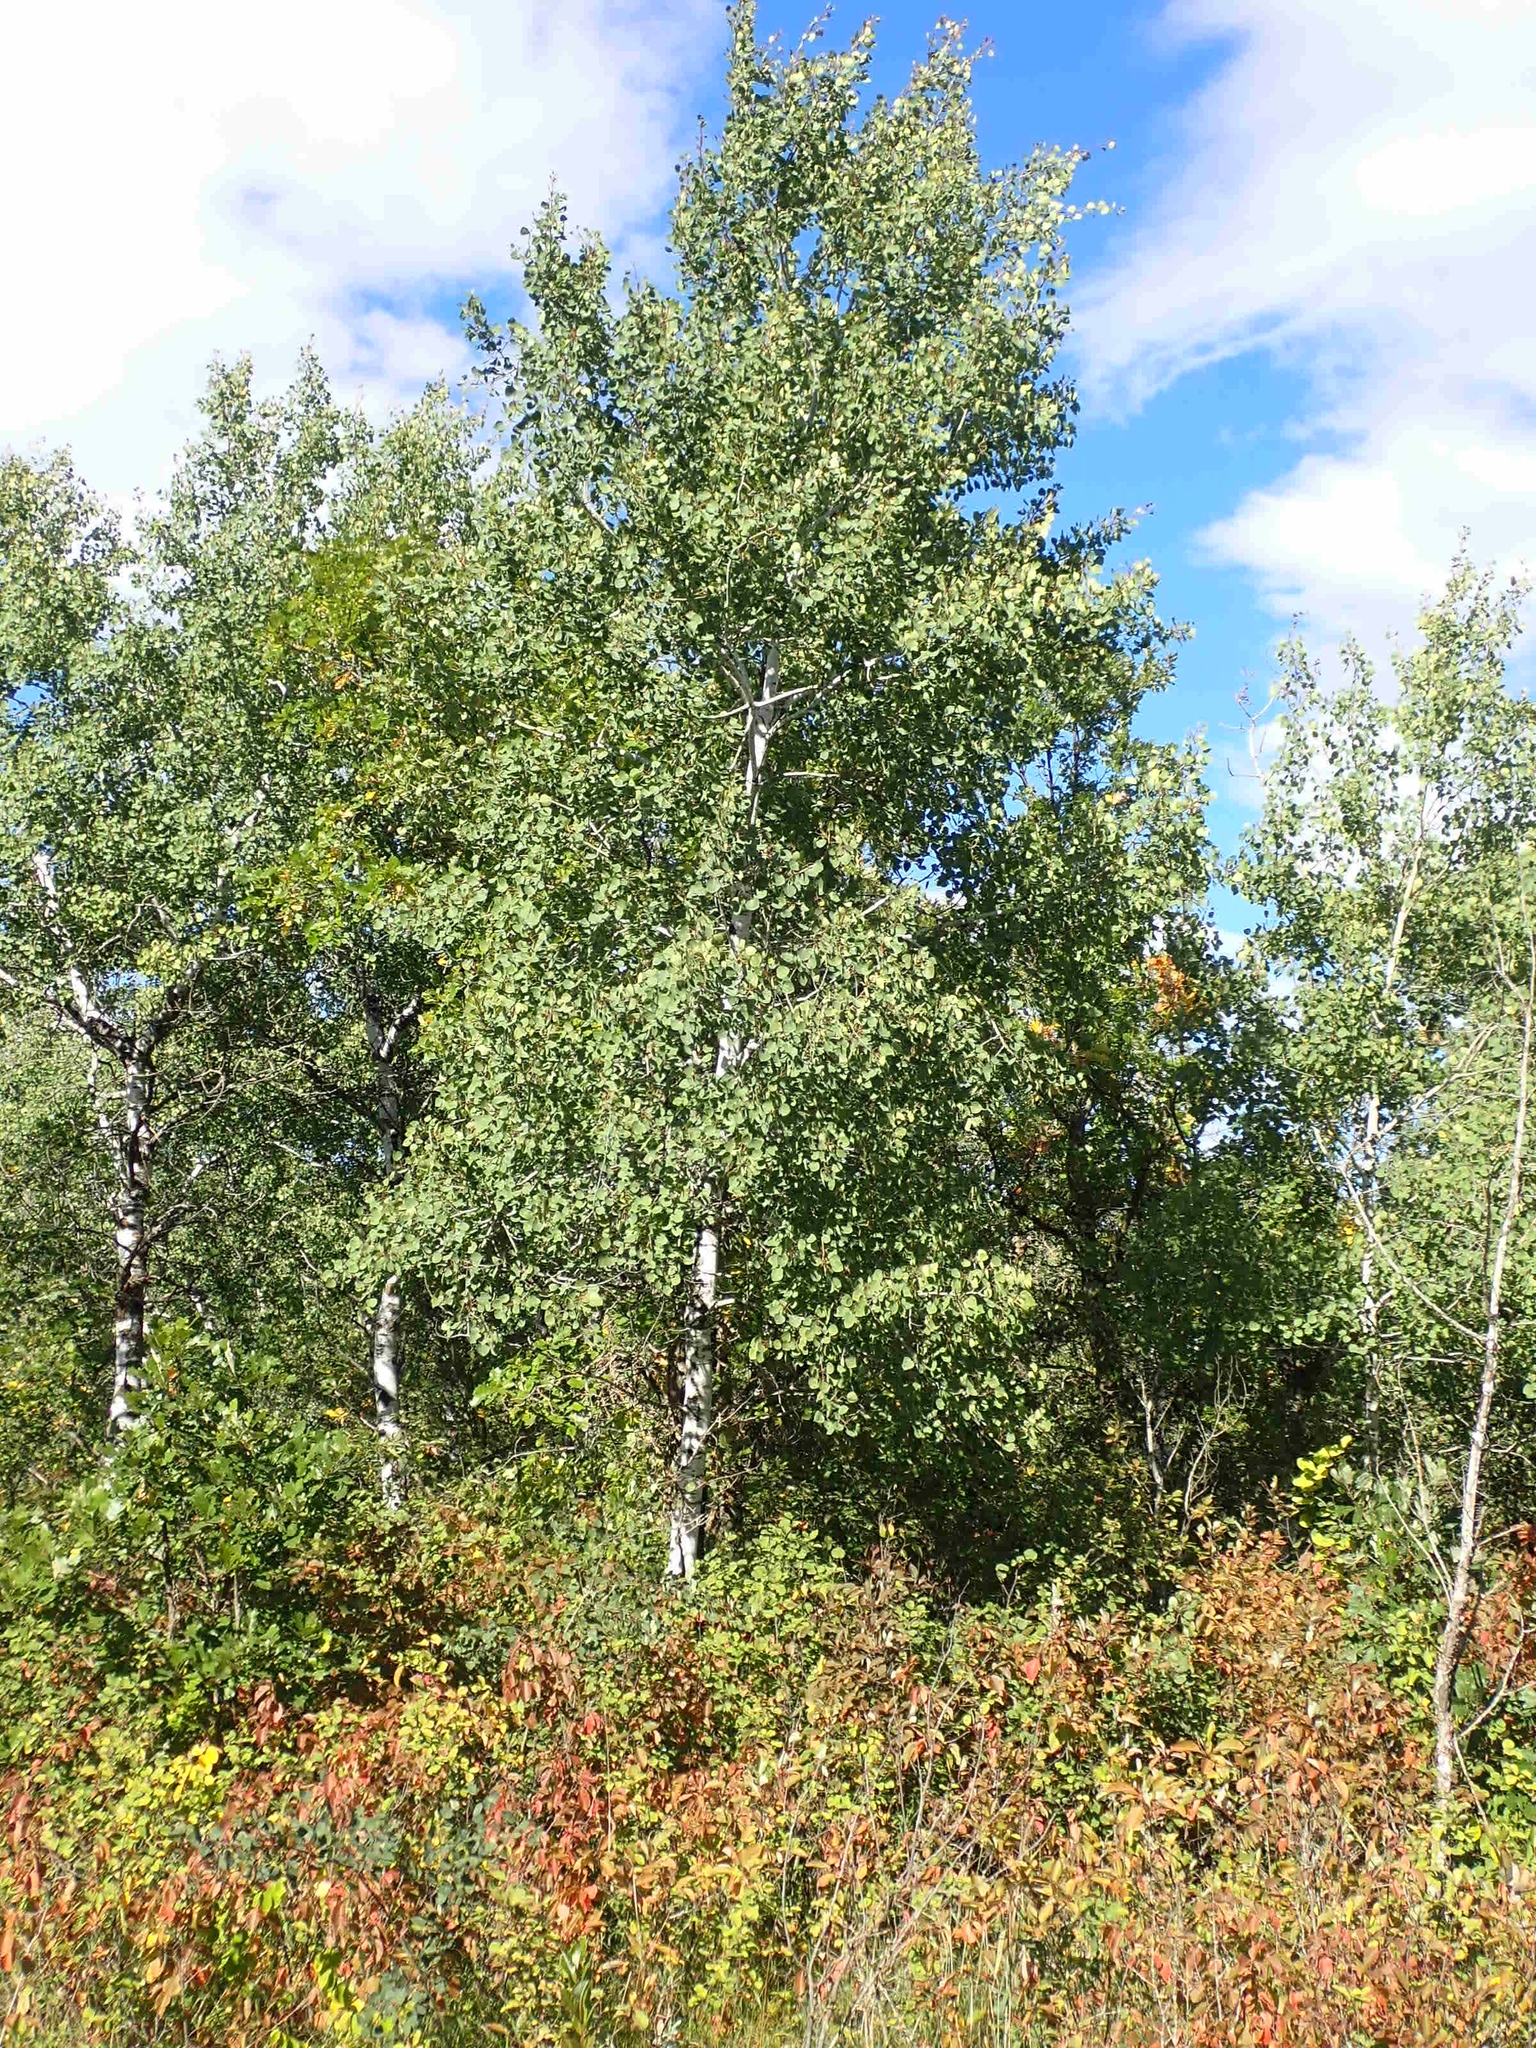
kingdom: Plantae
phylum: Tracheophyta
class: Magnoliopsida
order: Malpighiales
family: Salicaceae
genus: Populus
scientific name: Populus tremuloides
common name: Quaking aspen
